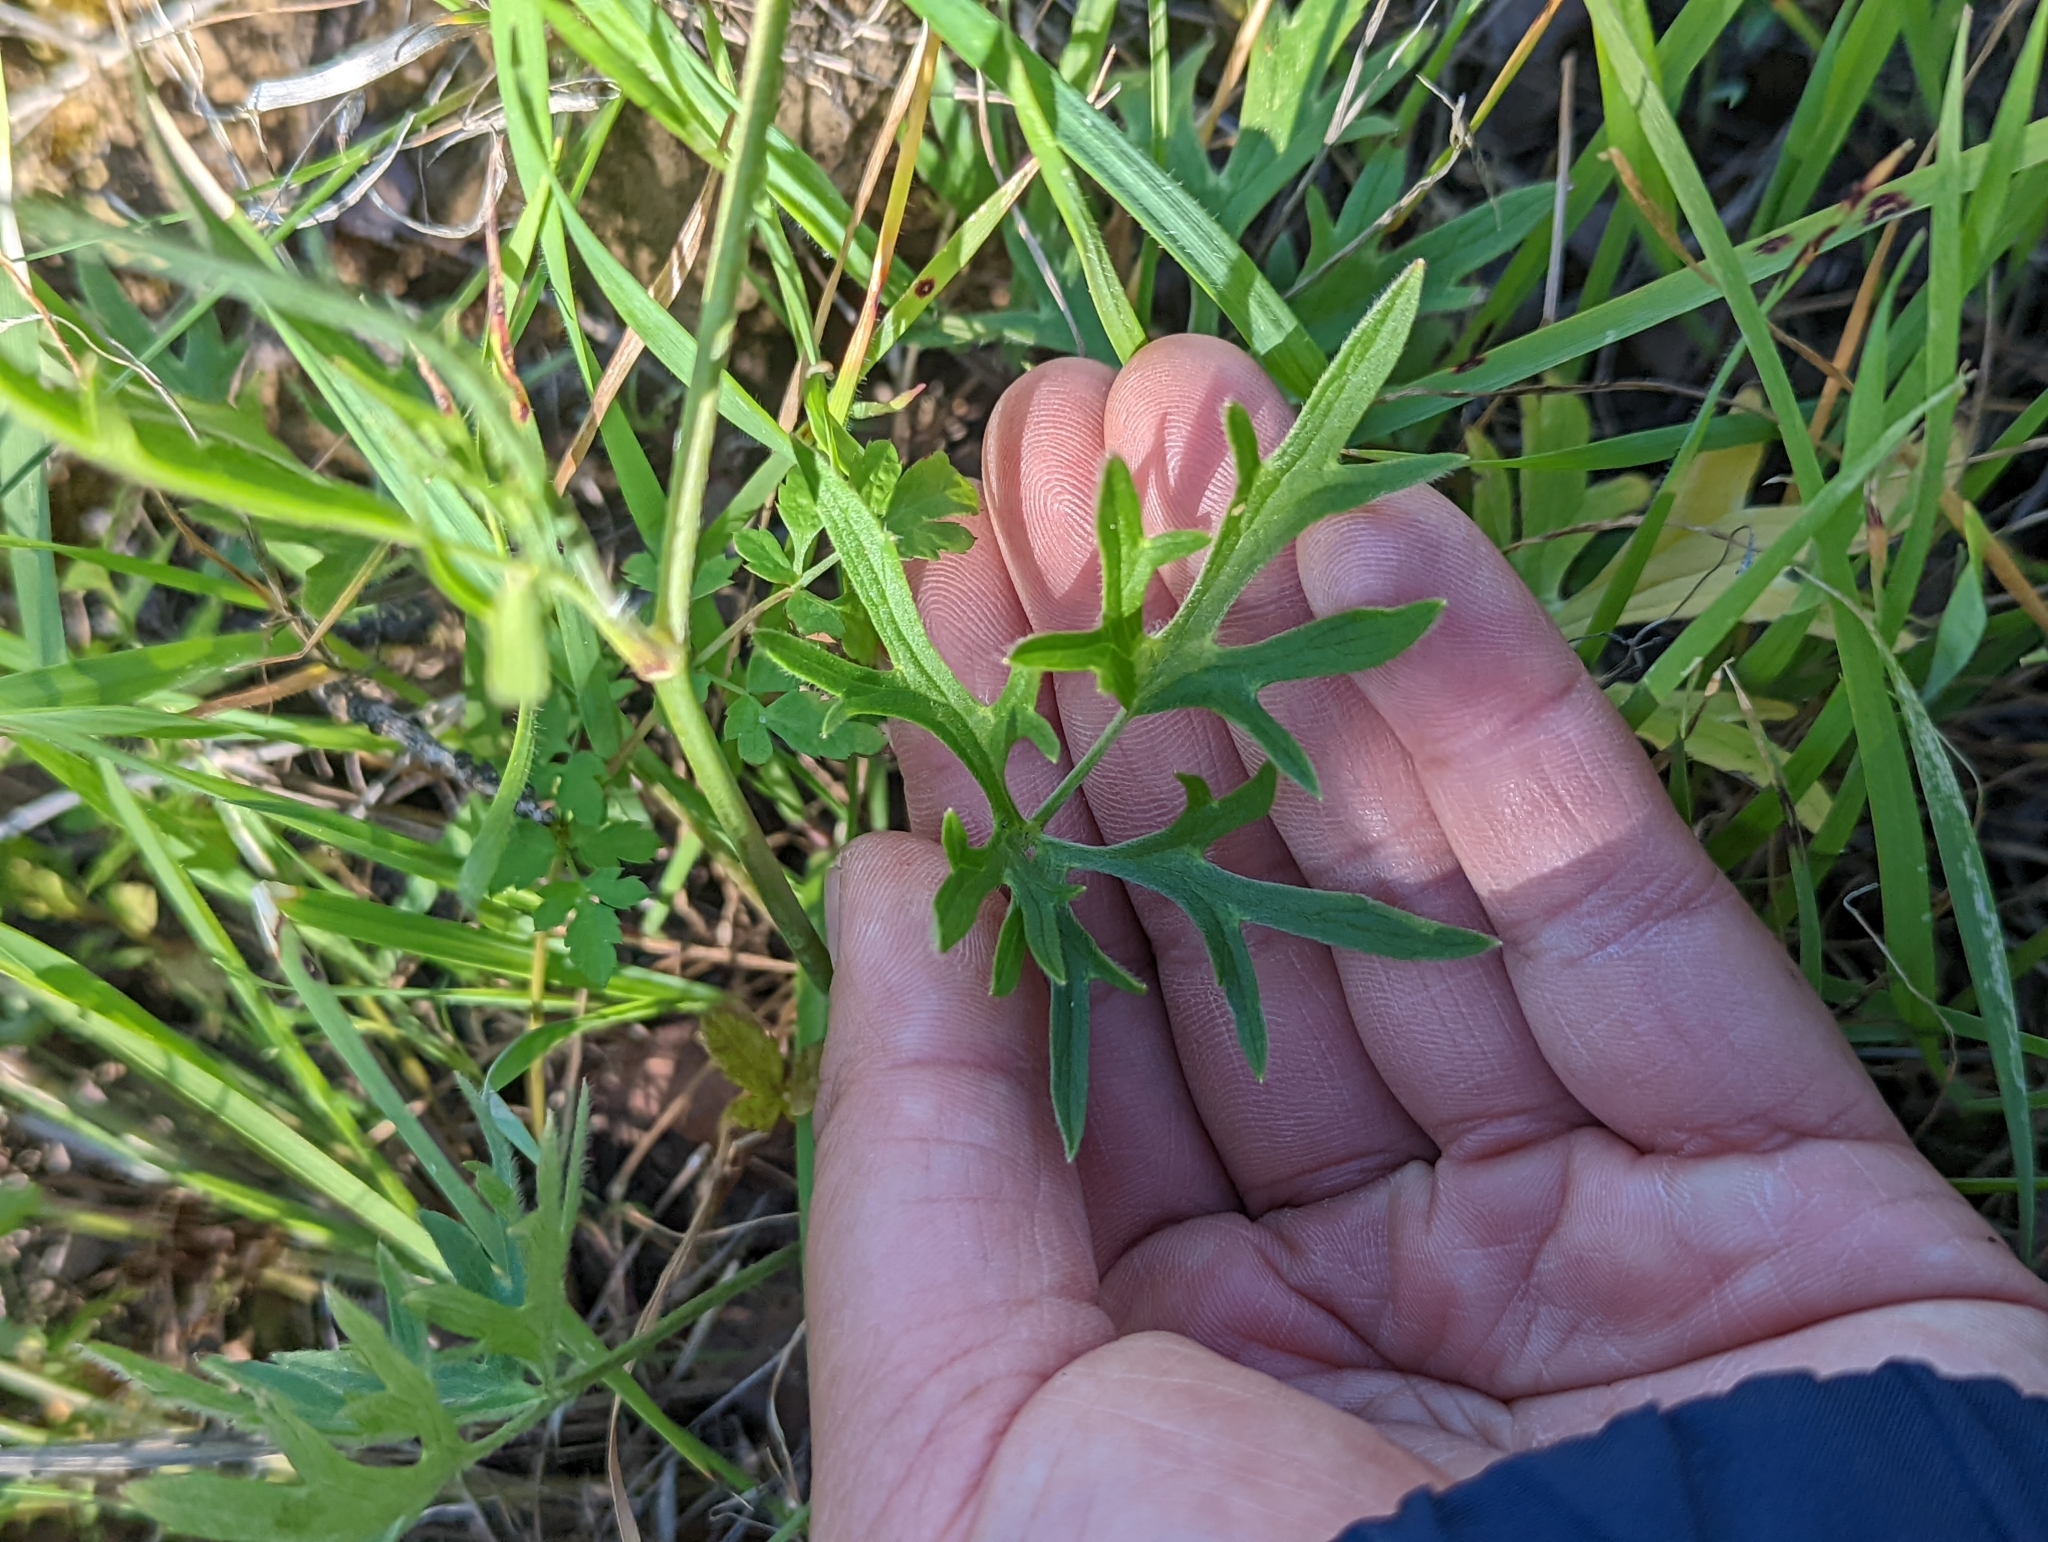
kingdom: Plantae
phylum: Tracheophyta
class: Magnoliopsida
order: Ranunculales
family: Ranunculaceae
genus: Ranunculus
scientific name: Ranunculus occidentalis
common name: Western buttercup
